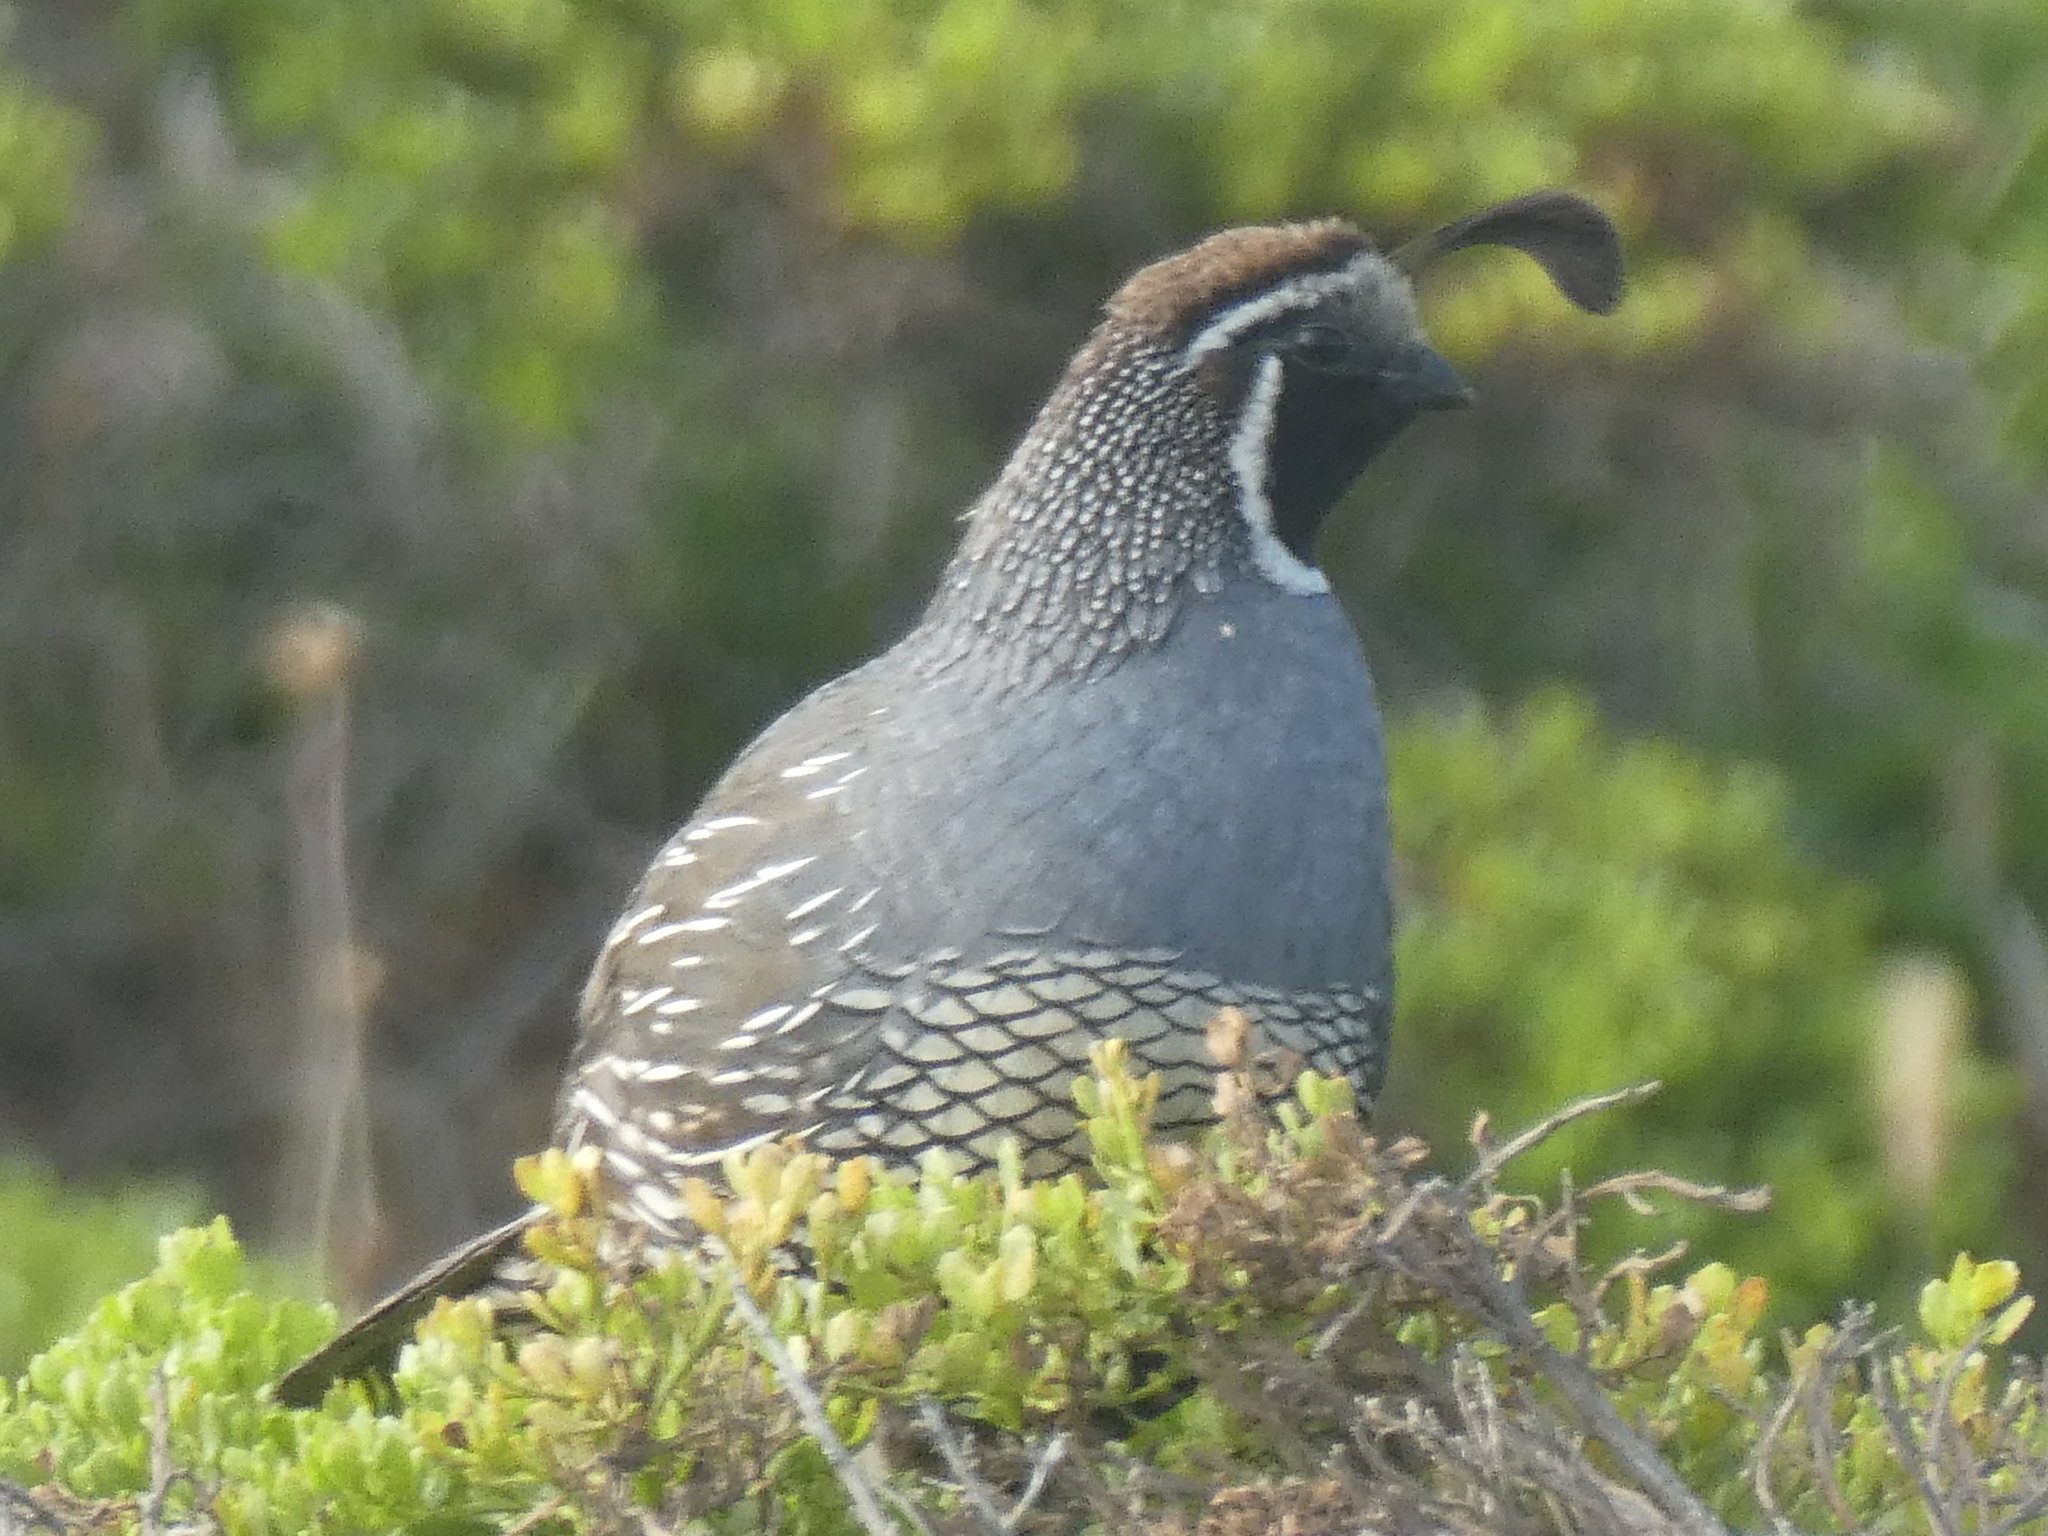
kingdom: Animalia
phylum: Chordata
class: Aves
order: Galliformes
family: Odontophoridae
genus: Callipepla
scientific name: Callipepla californica
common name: California quail
